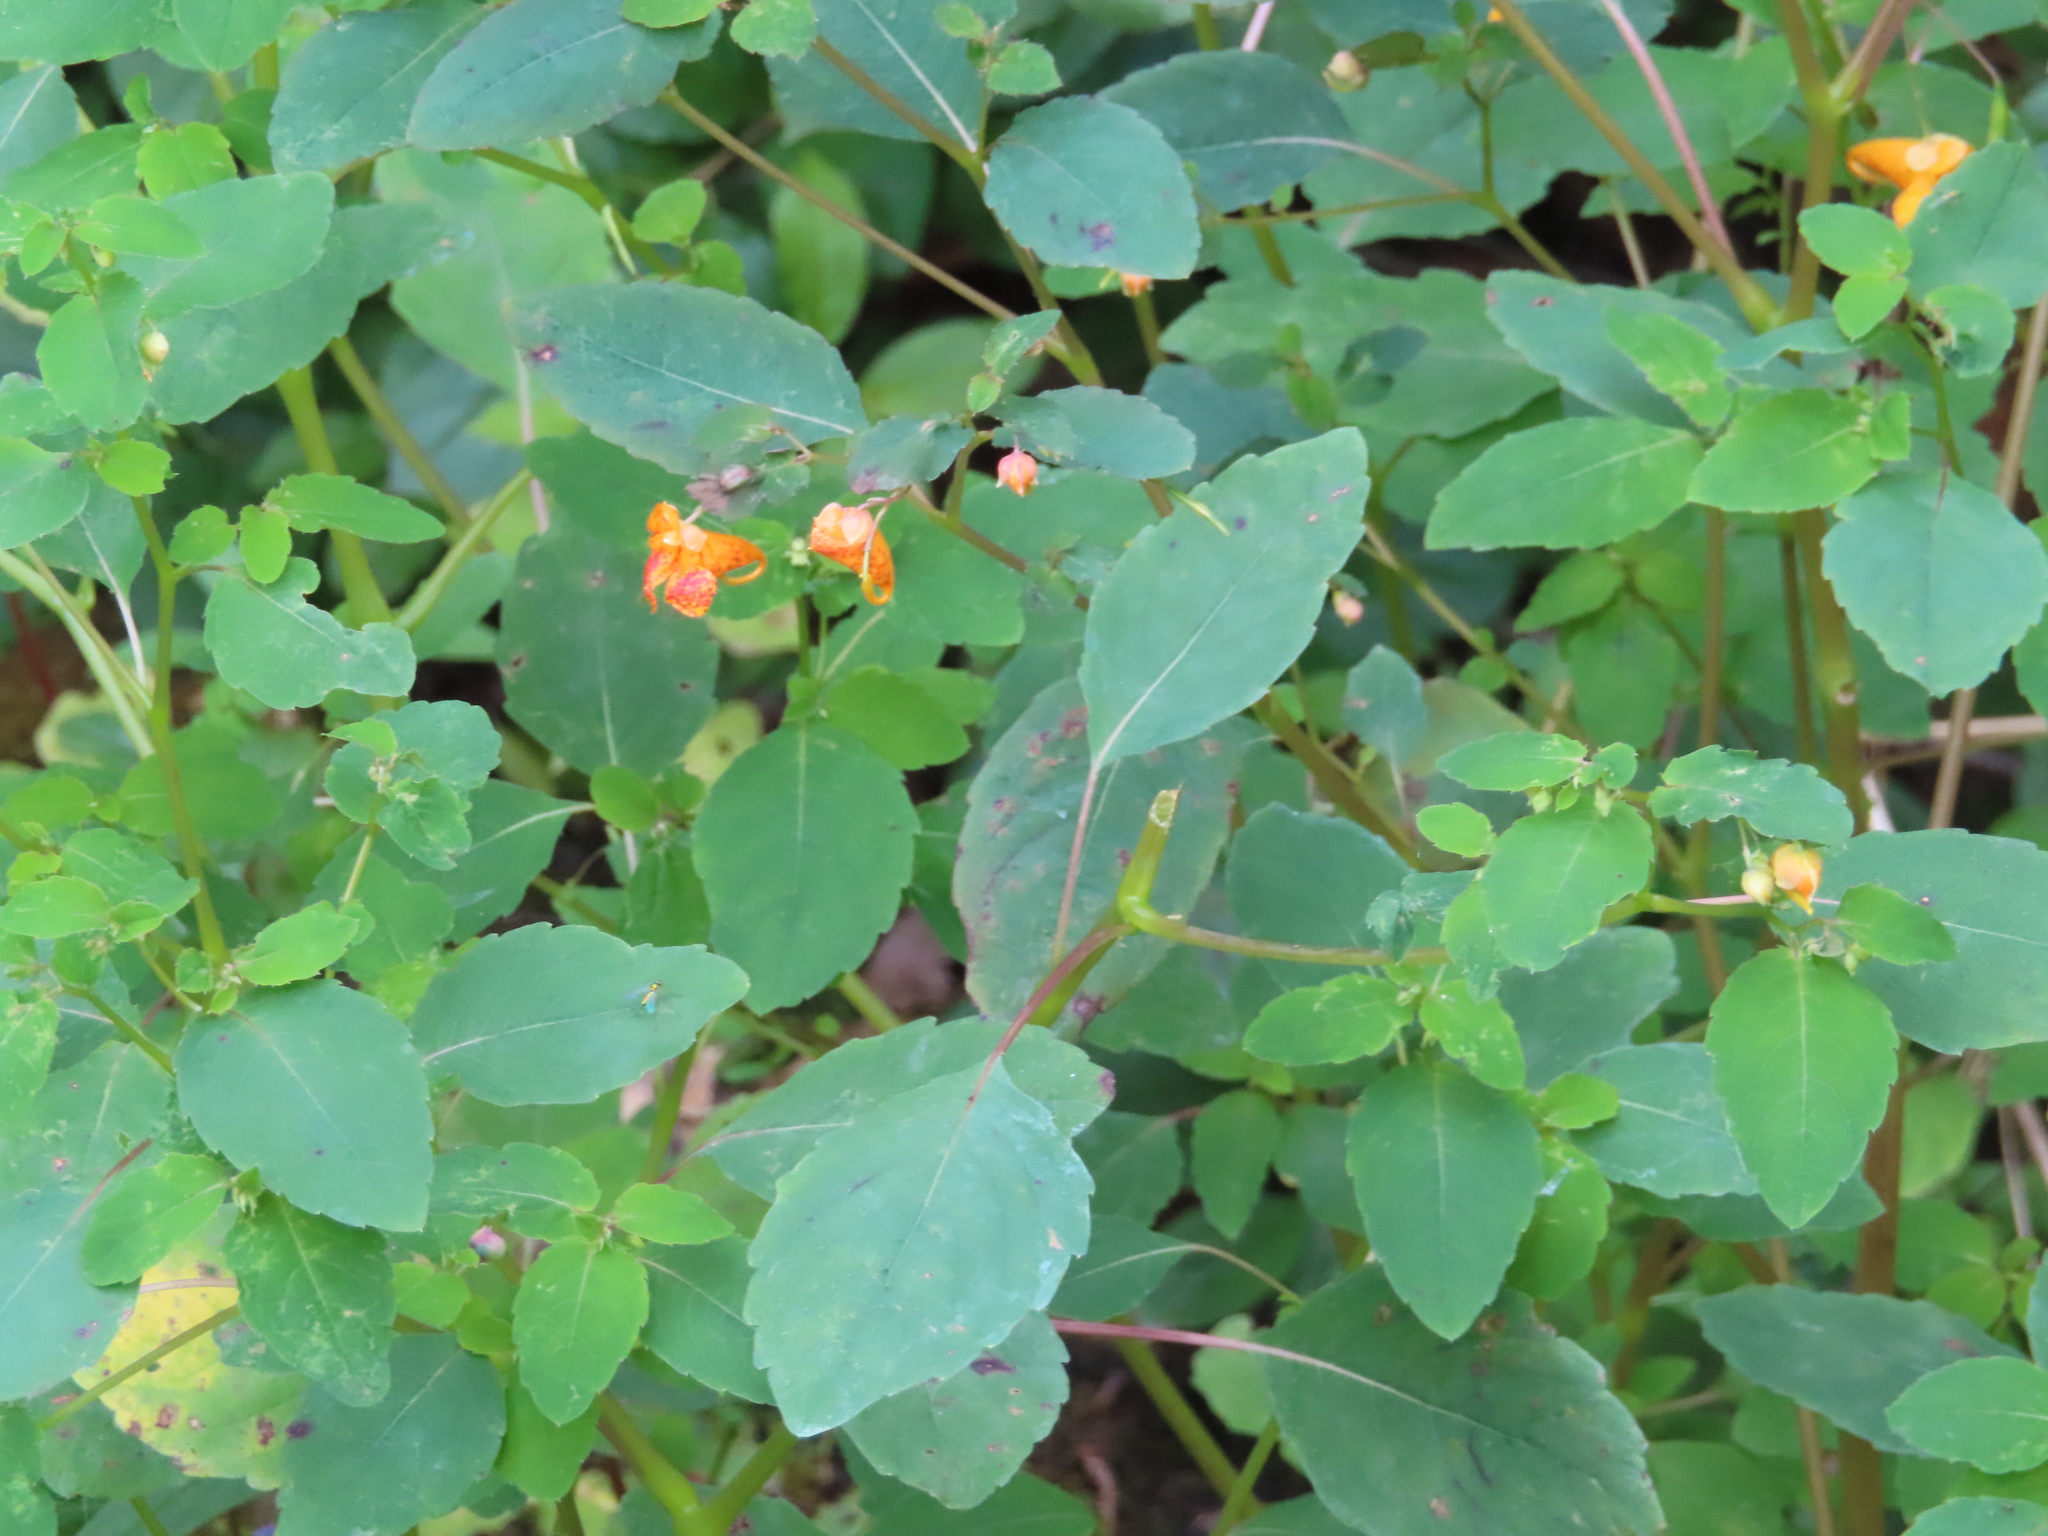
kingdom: Plantae
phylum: Tracheophyta
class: Magnoliopsida
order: Ericales
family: Balsaminaceae
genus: Impatiens
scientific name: Impatiens capensis
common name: Orange balsam
